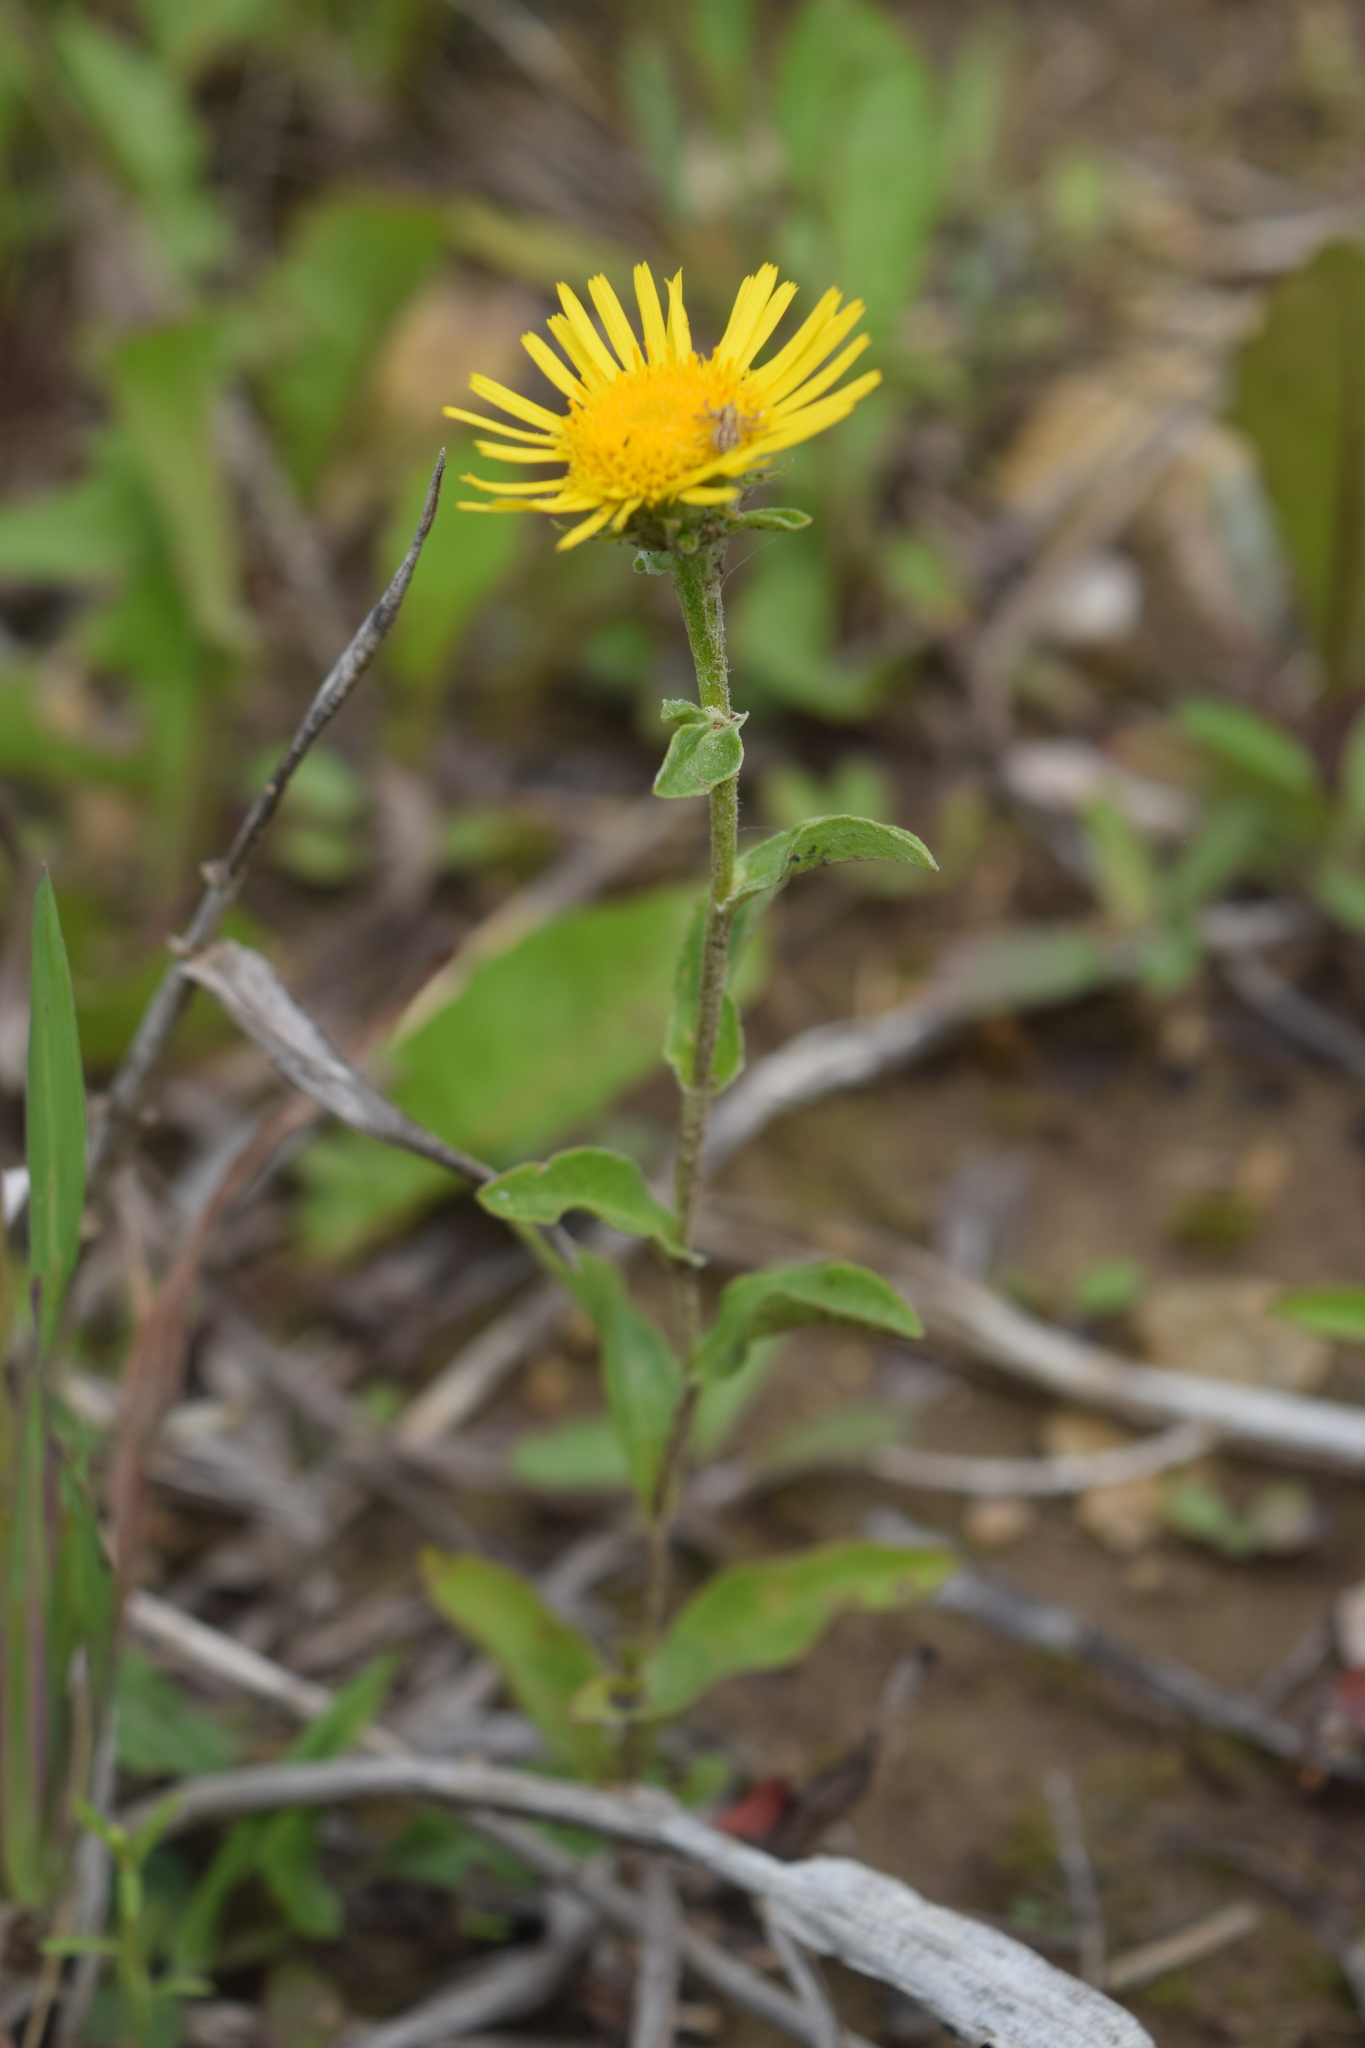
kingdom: Plantae
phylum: Tracheophyta
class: Magnoliopsida
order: Asterales
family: Asteraceae
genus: Pentanema
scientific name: Pentanema britannicum
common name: British elecampane
